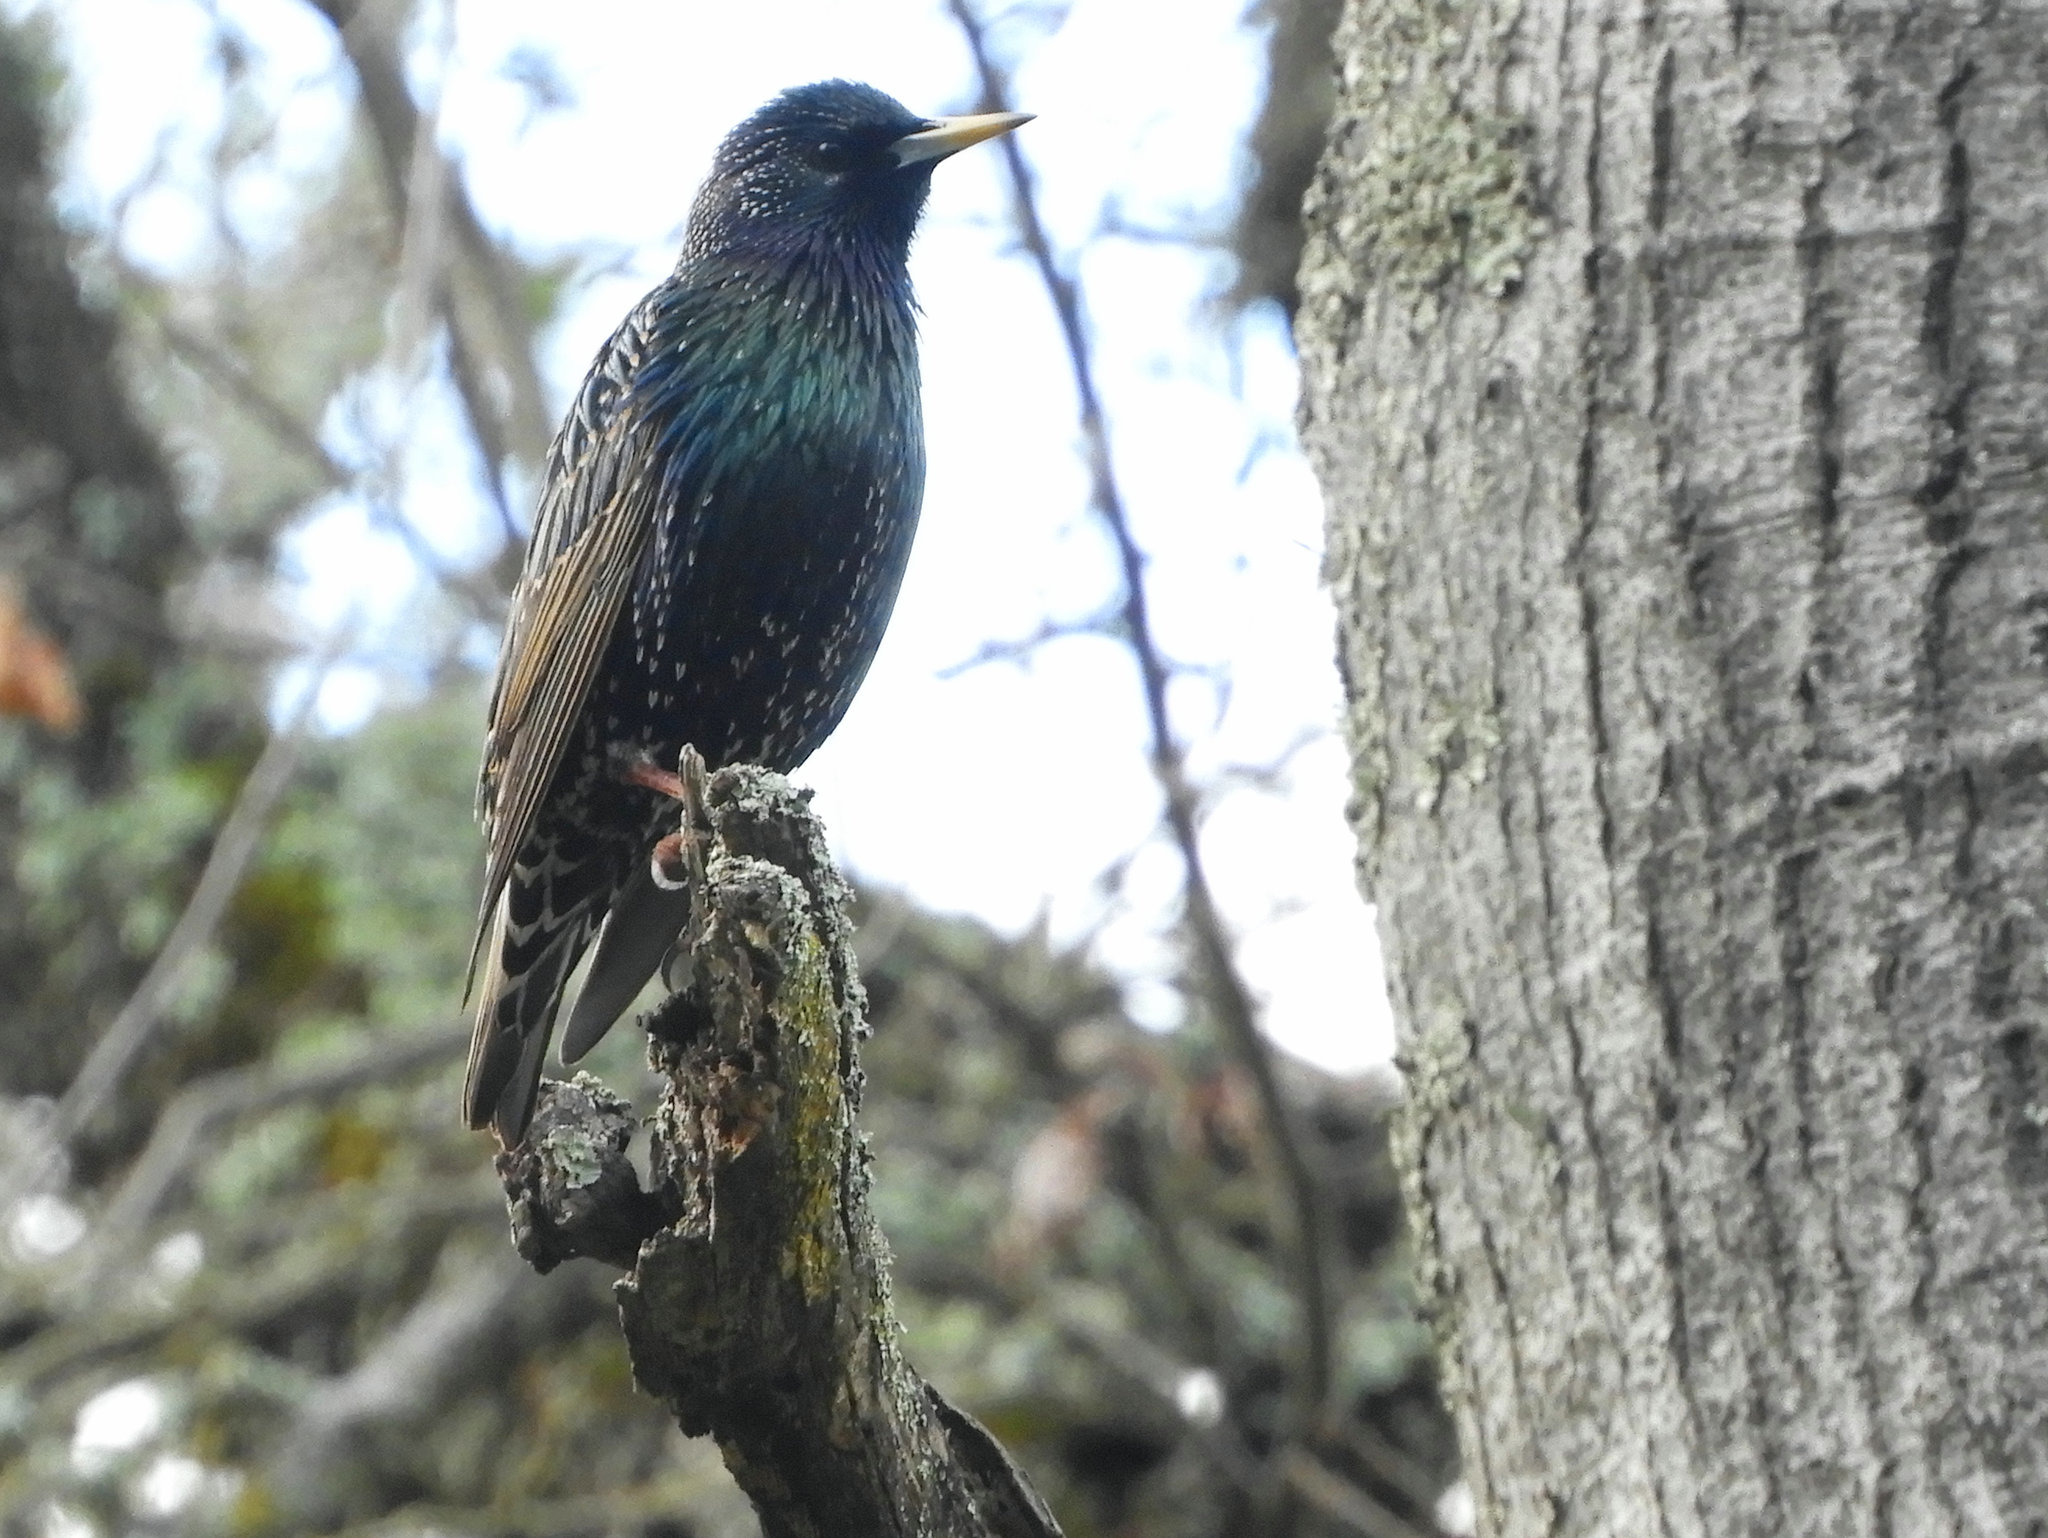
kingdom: Animalia
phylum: Chordata
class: Aves
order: Passeriformes
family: Sturnidae
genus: Sturnus
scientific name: Sturnus vulgaris
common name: Common starling
